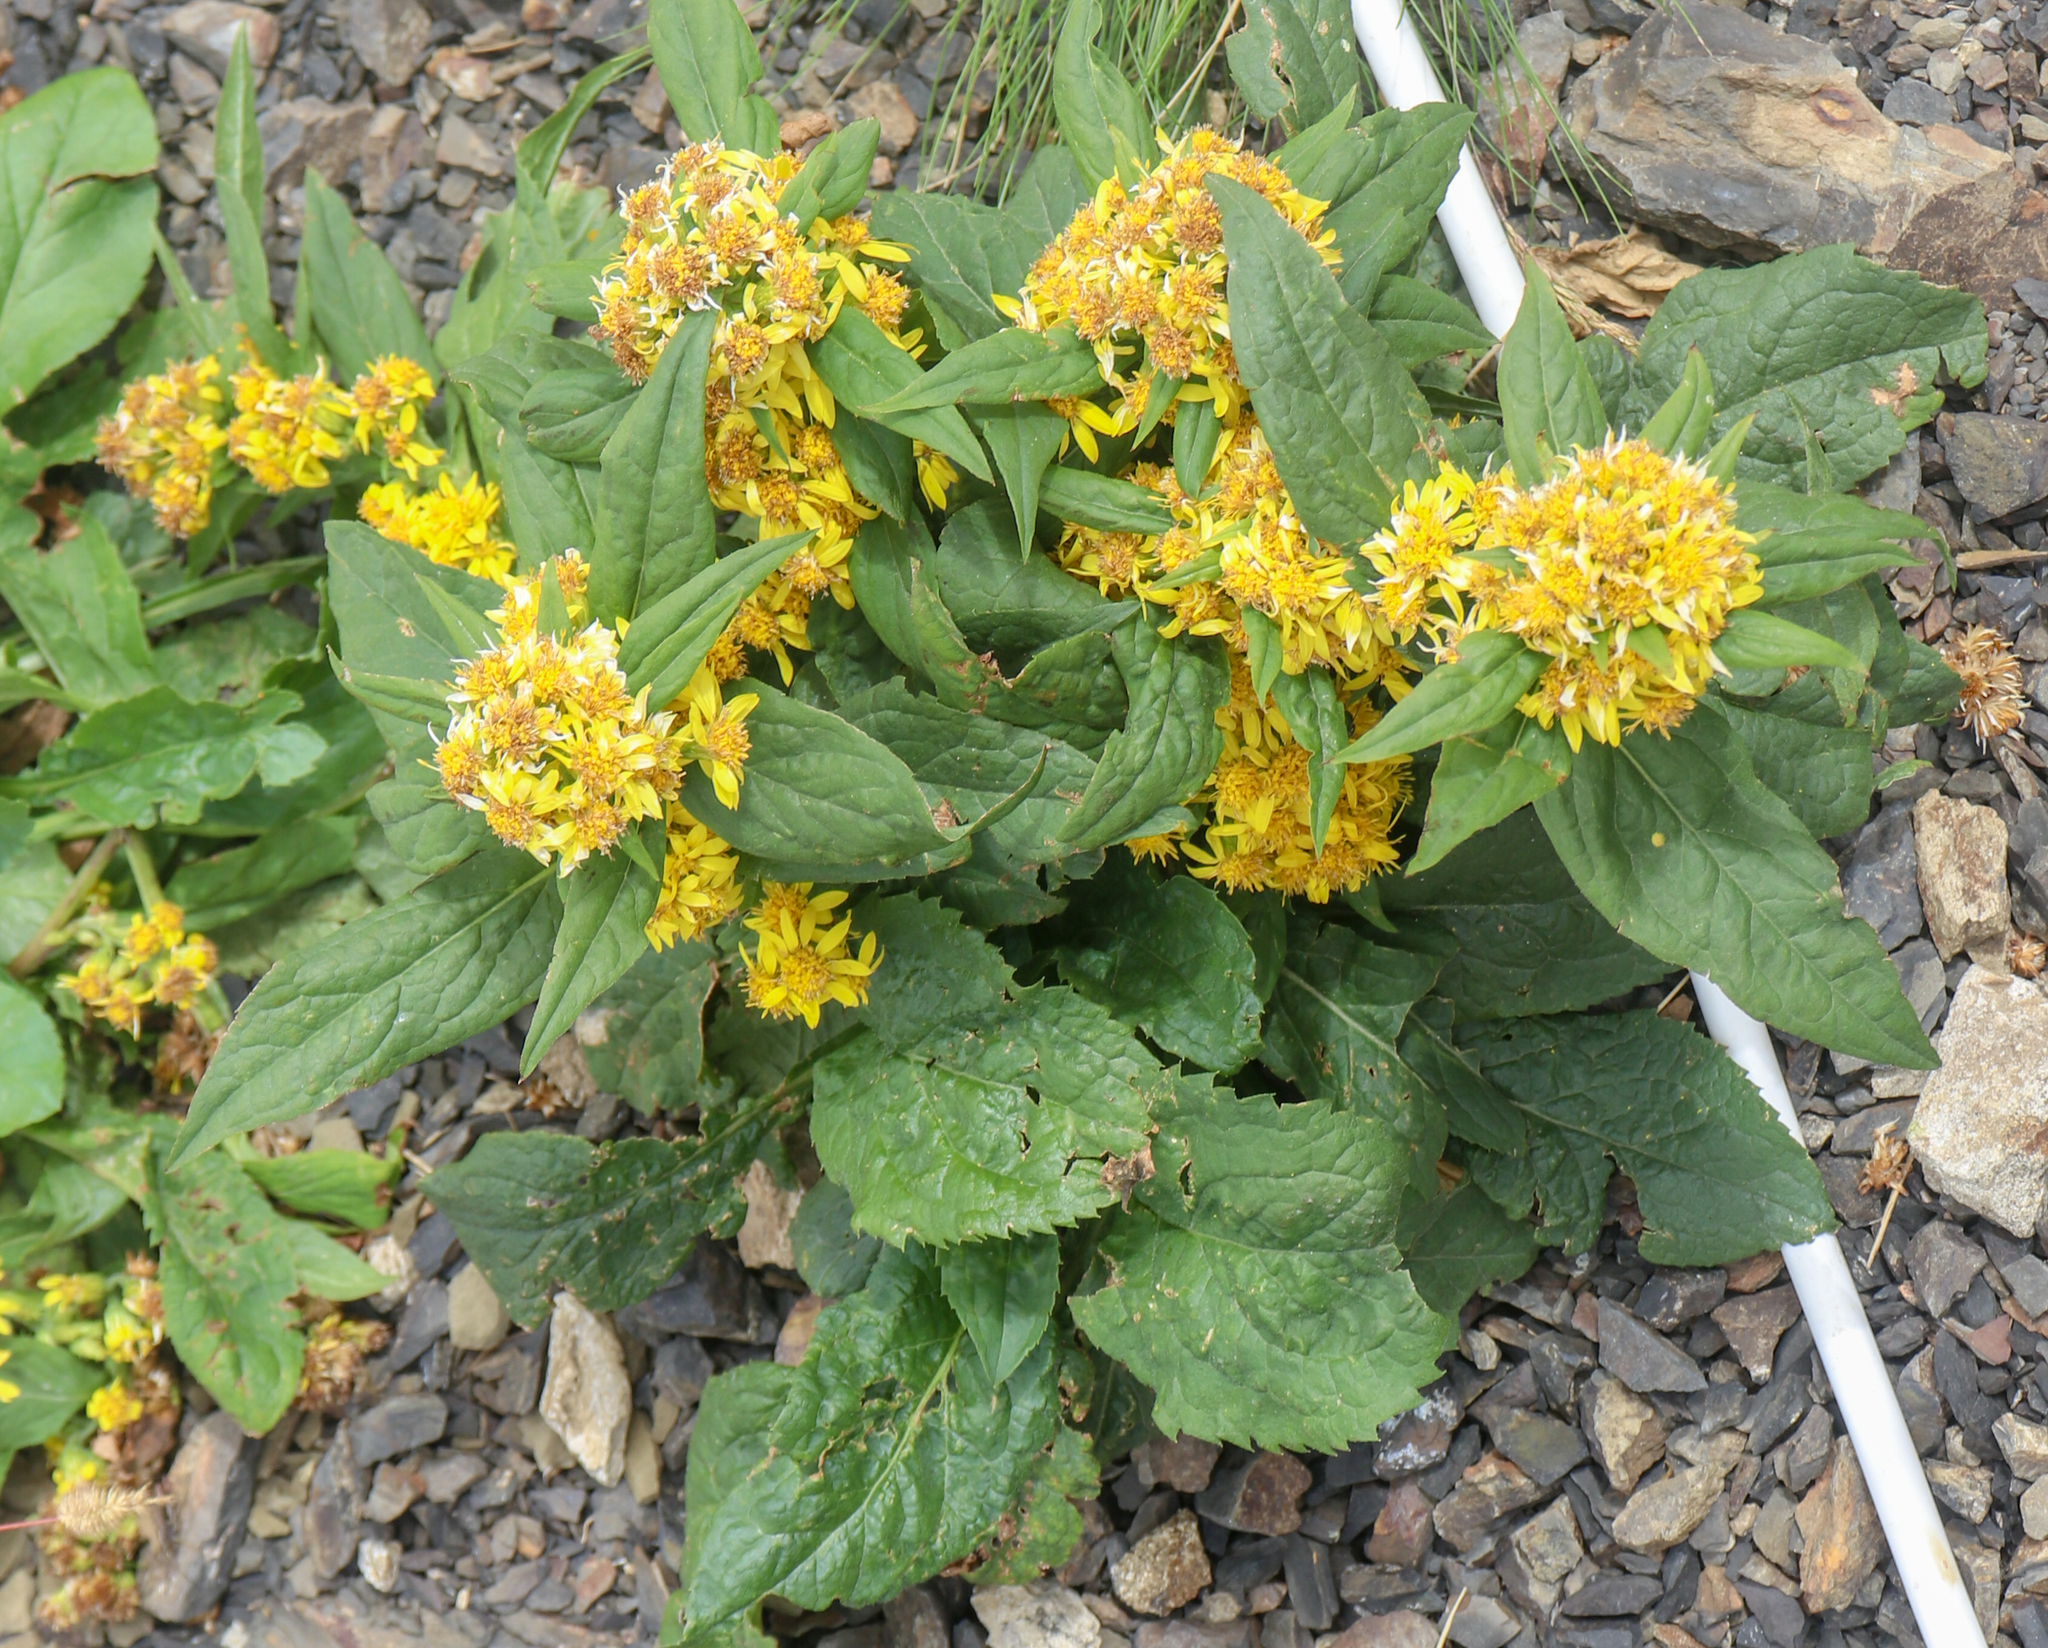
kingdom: Plantae
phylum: Tracheophyta
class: Magnoliopsida
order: Asterales
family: Asteraceae
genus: Solidago
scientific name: Solidago virgaurea
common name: Goldenrod
